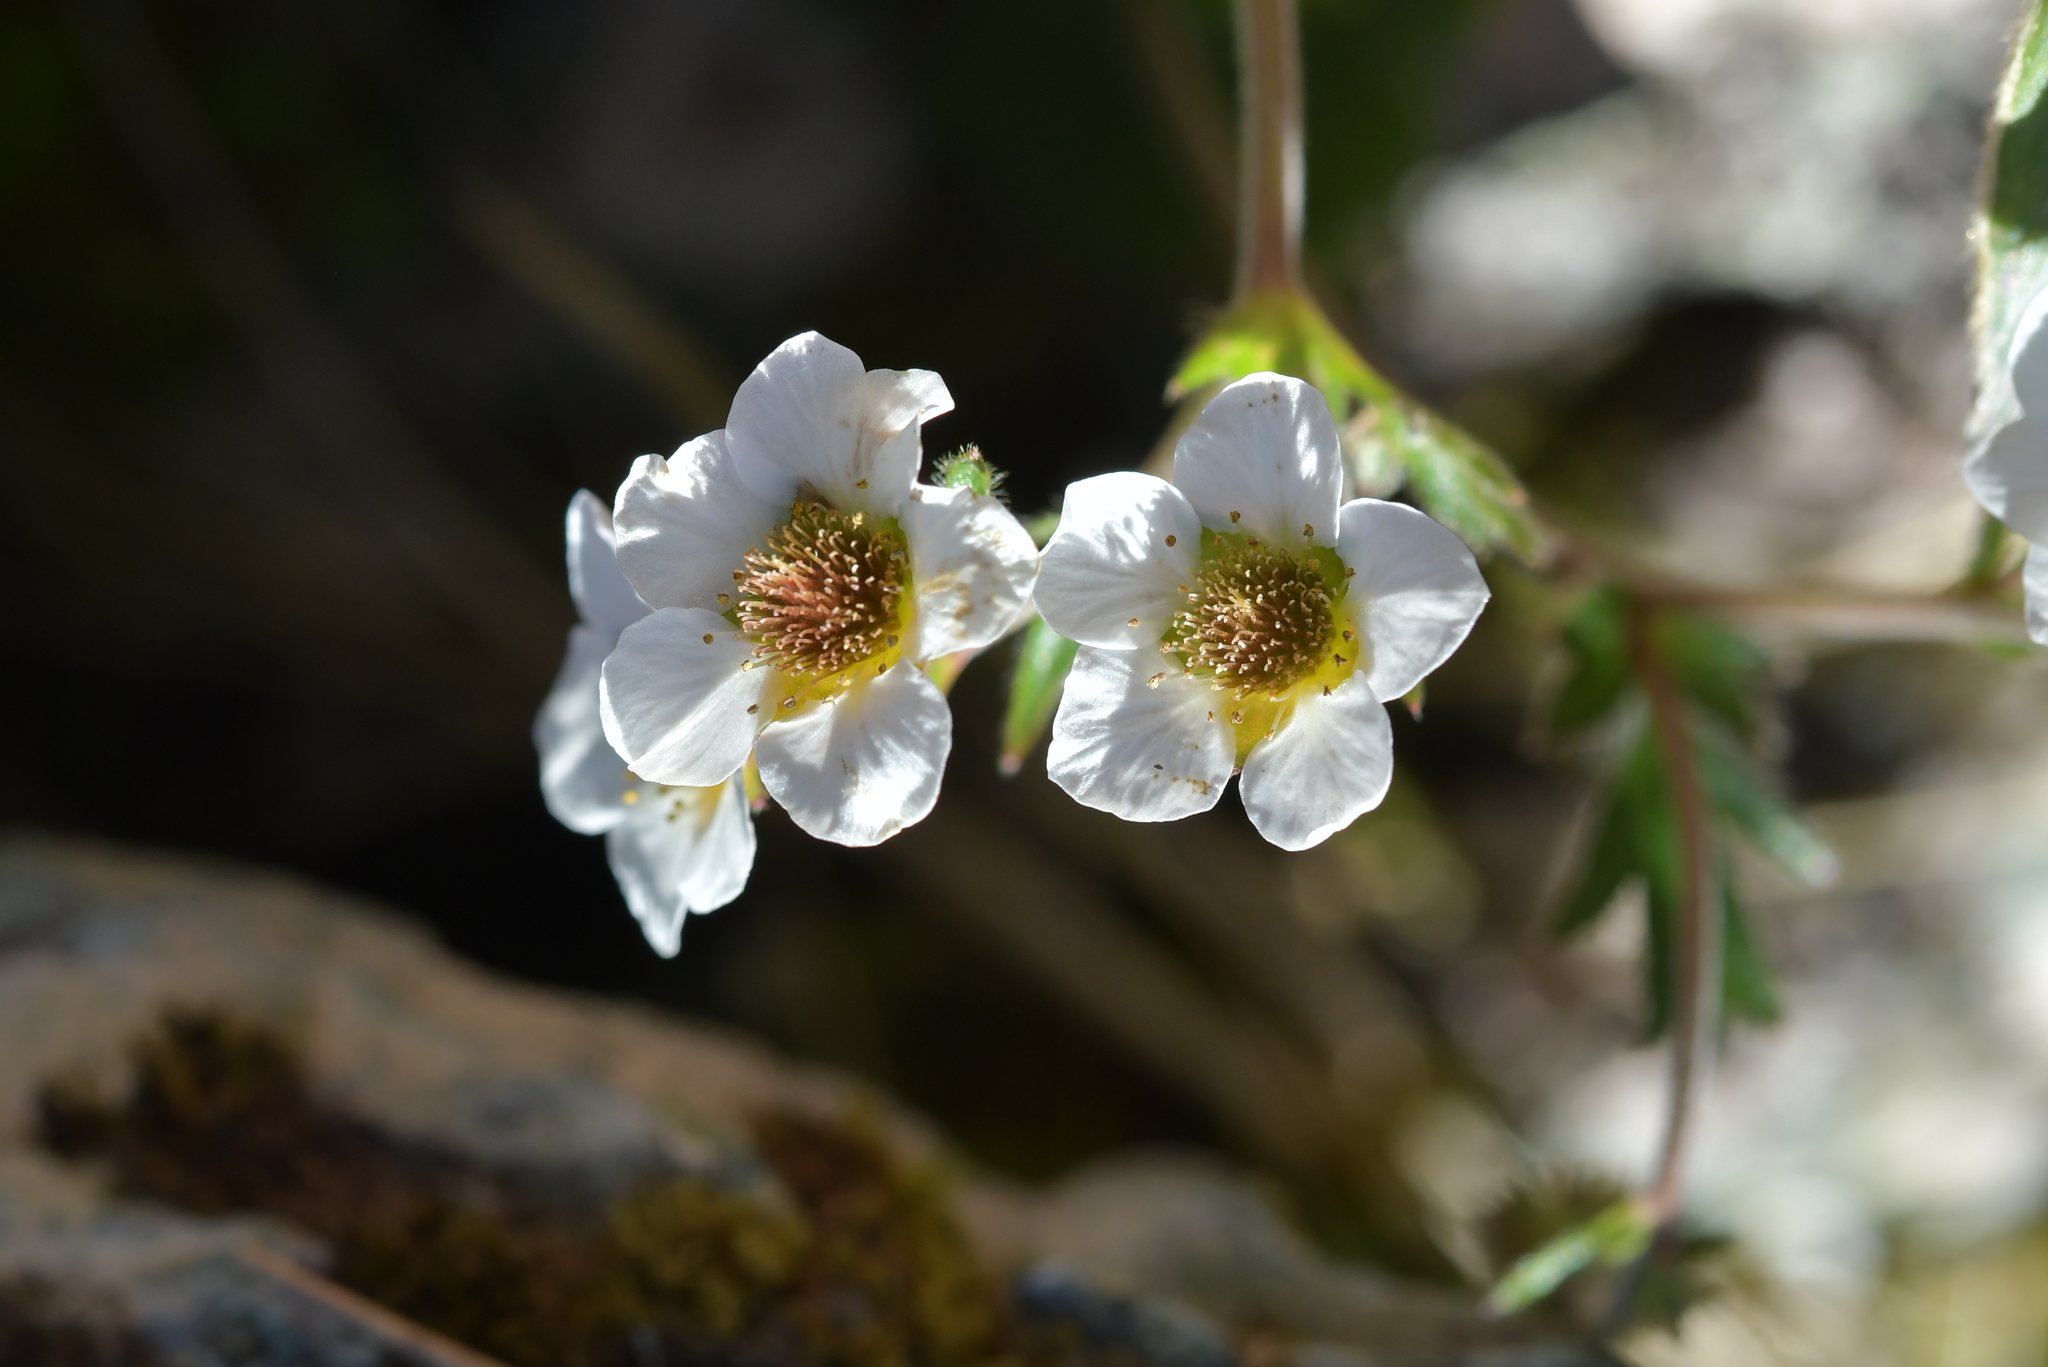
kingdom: Plantae
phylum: Tracheophyta
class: Magnoliopsida
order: Rosales
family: Rosaceae
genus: Geum
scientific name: Geum cockaynei
